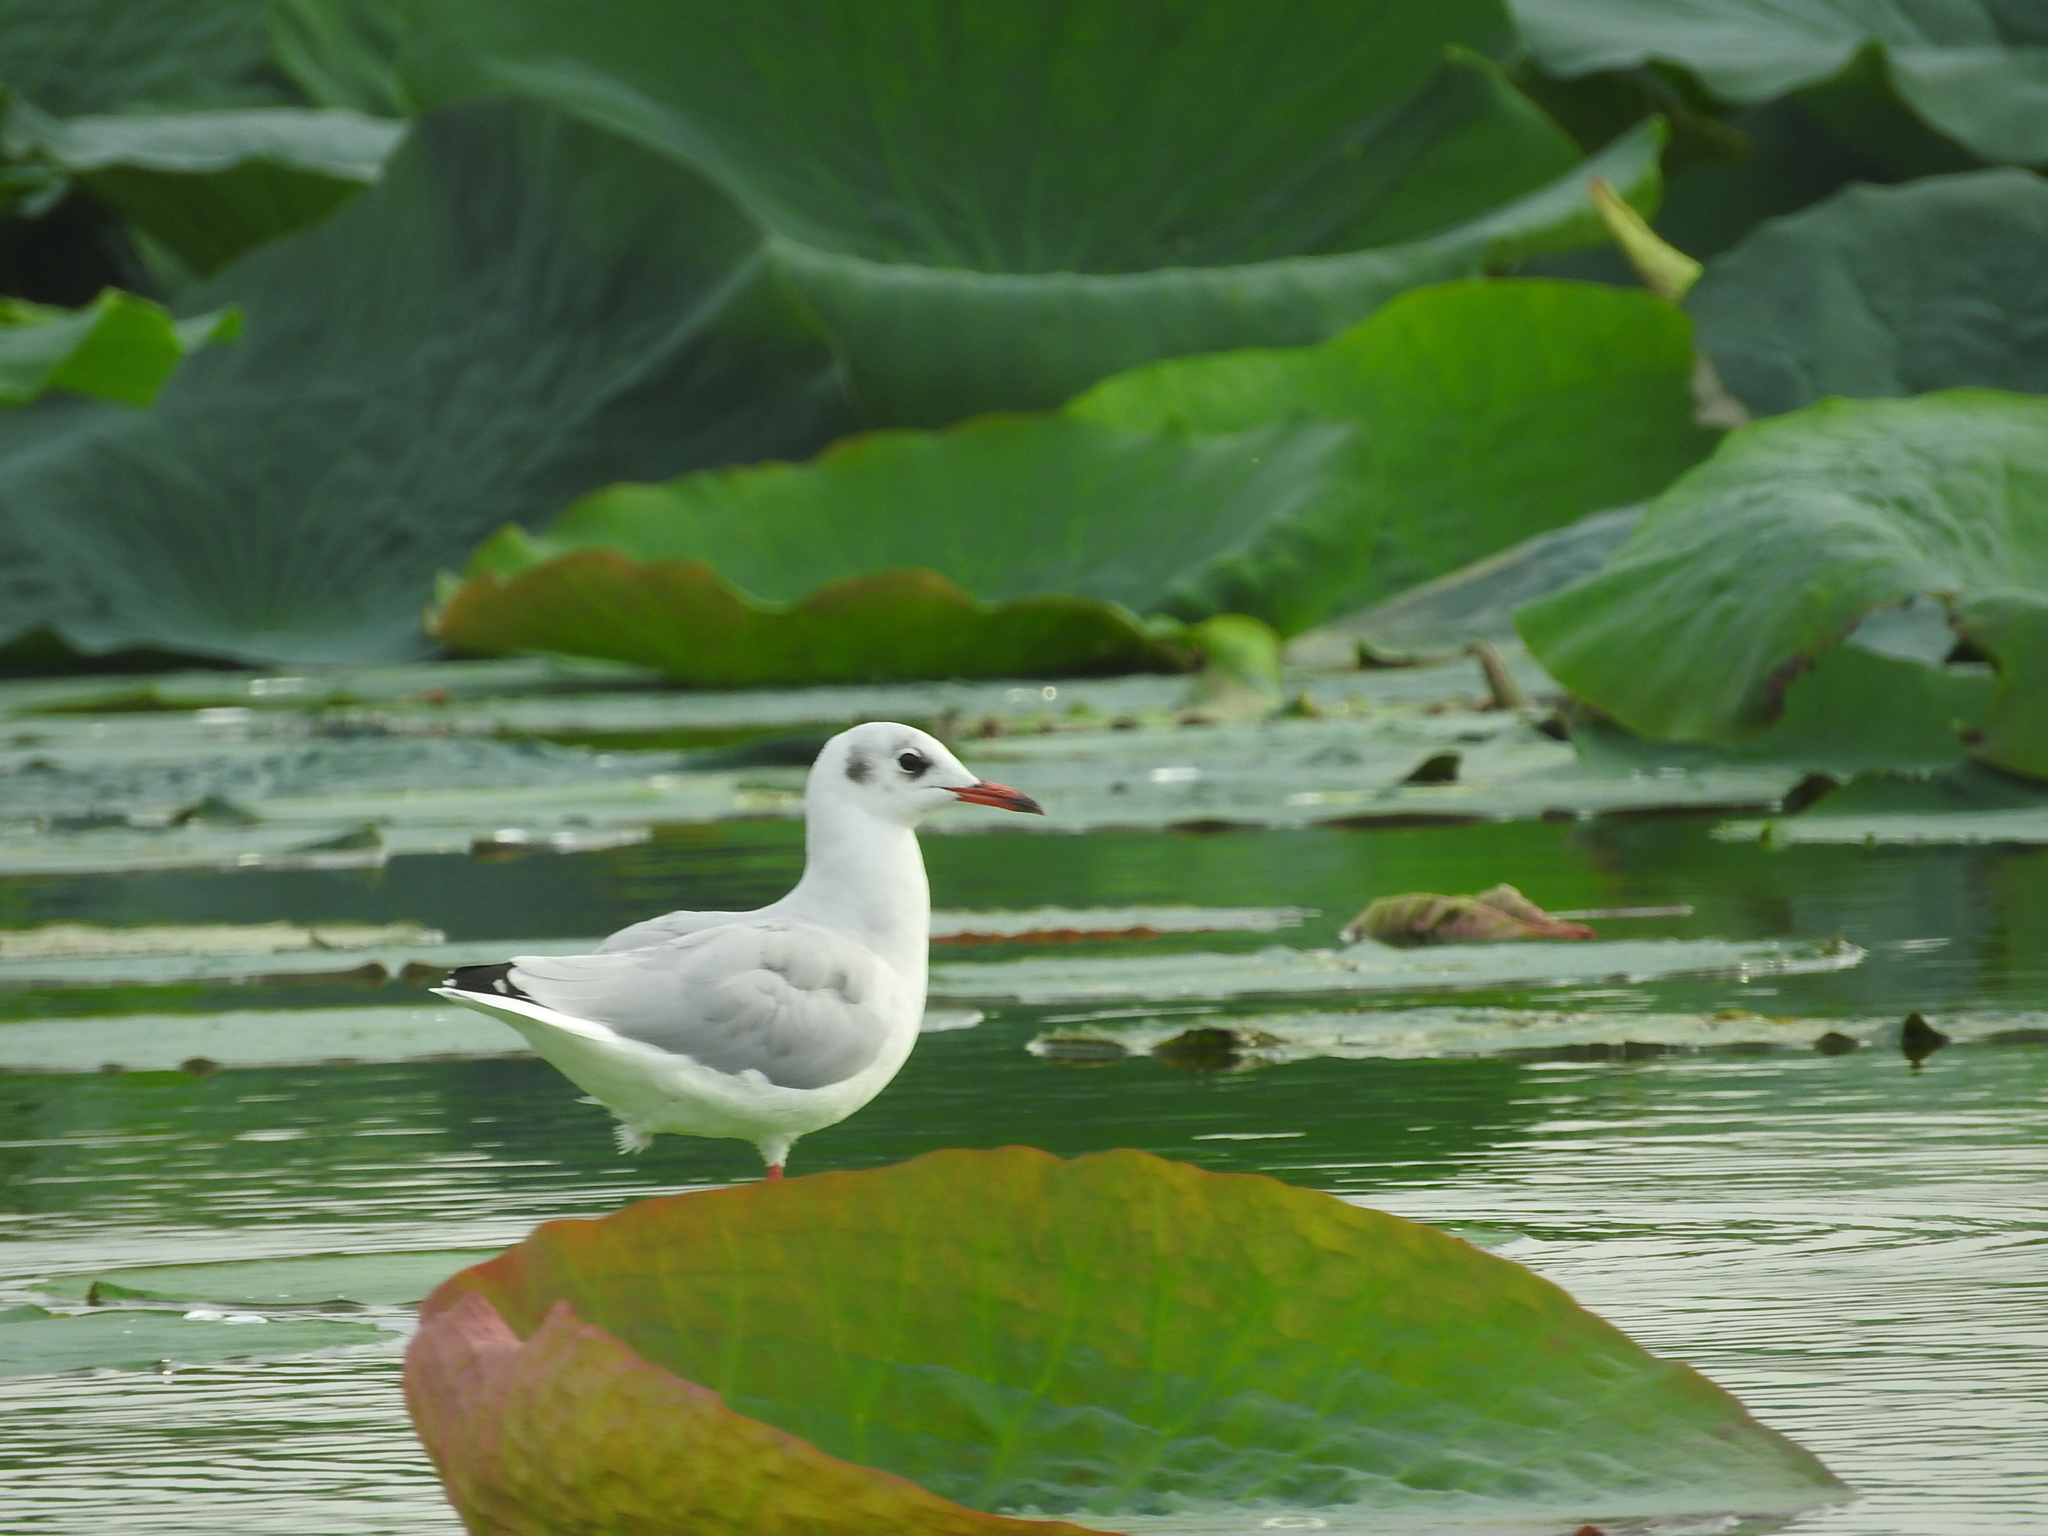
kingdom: Animalia
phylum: Chordata
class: Aves
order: Charadriiformes
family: Laridae
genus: Chroicocephalus
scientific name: Chroicocephalus ridibundus
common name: Black-headed gull
